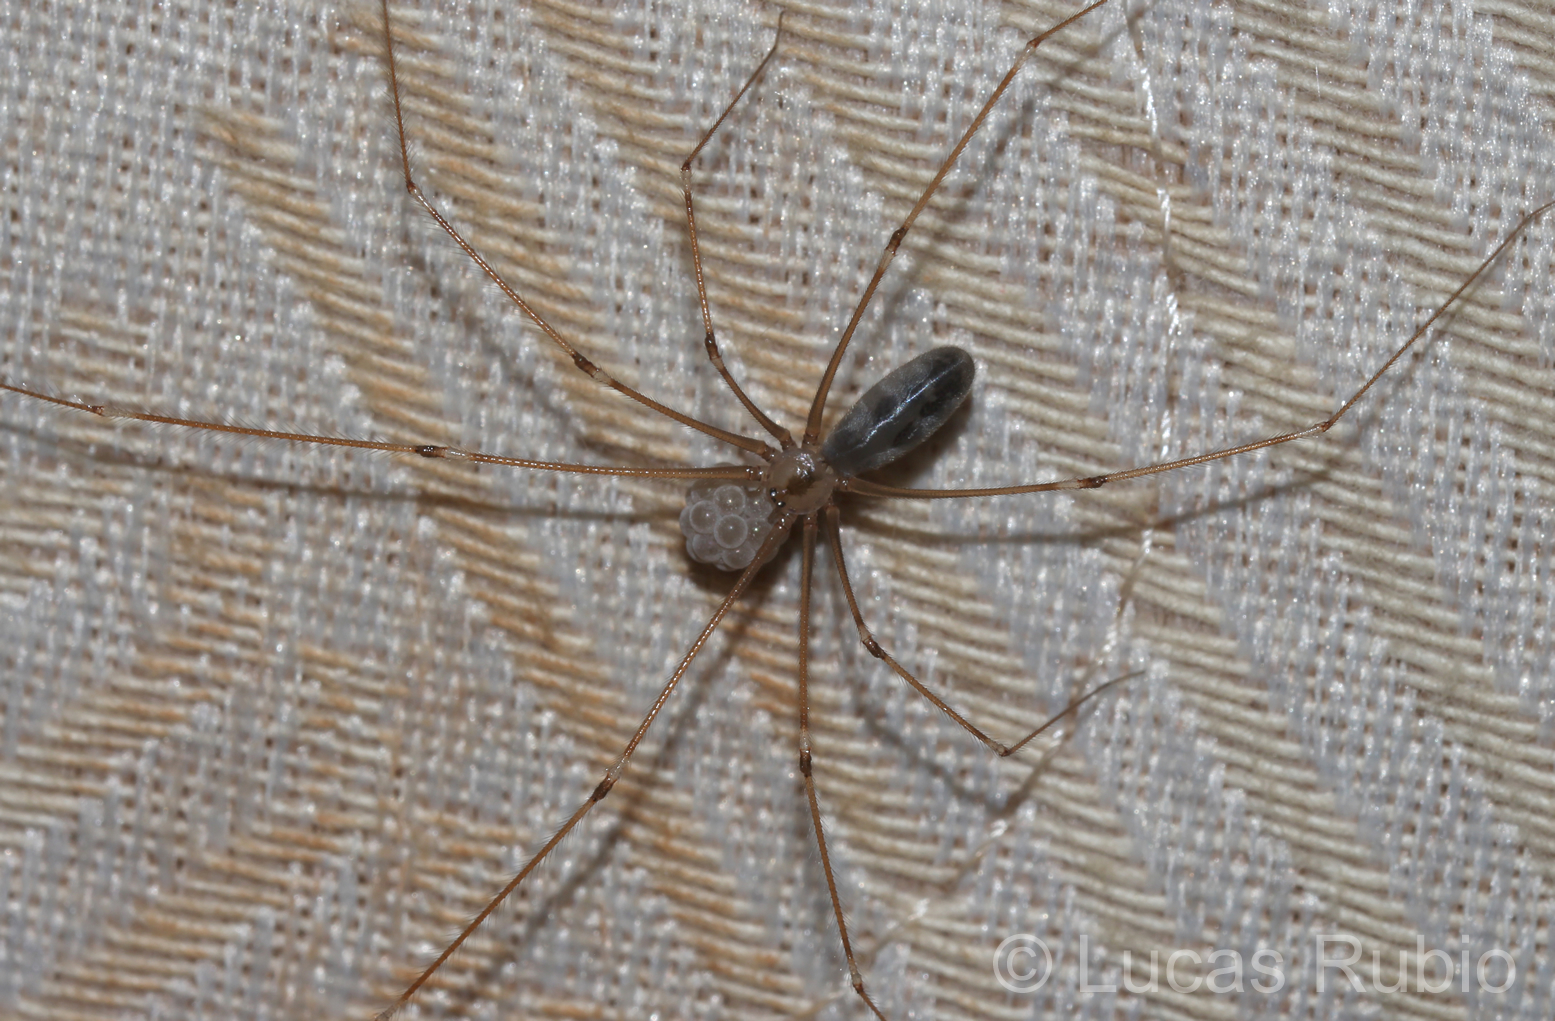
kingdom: Animalia
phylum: Arthropoda
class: Arachnida
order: Araneae
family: Pholcidae
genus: Pholcus
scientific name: Pholcus phalangioides
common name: Longbodied cellar spider
